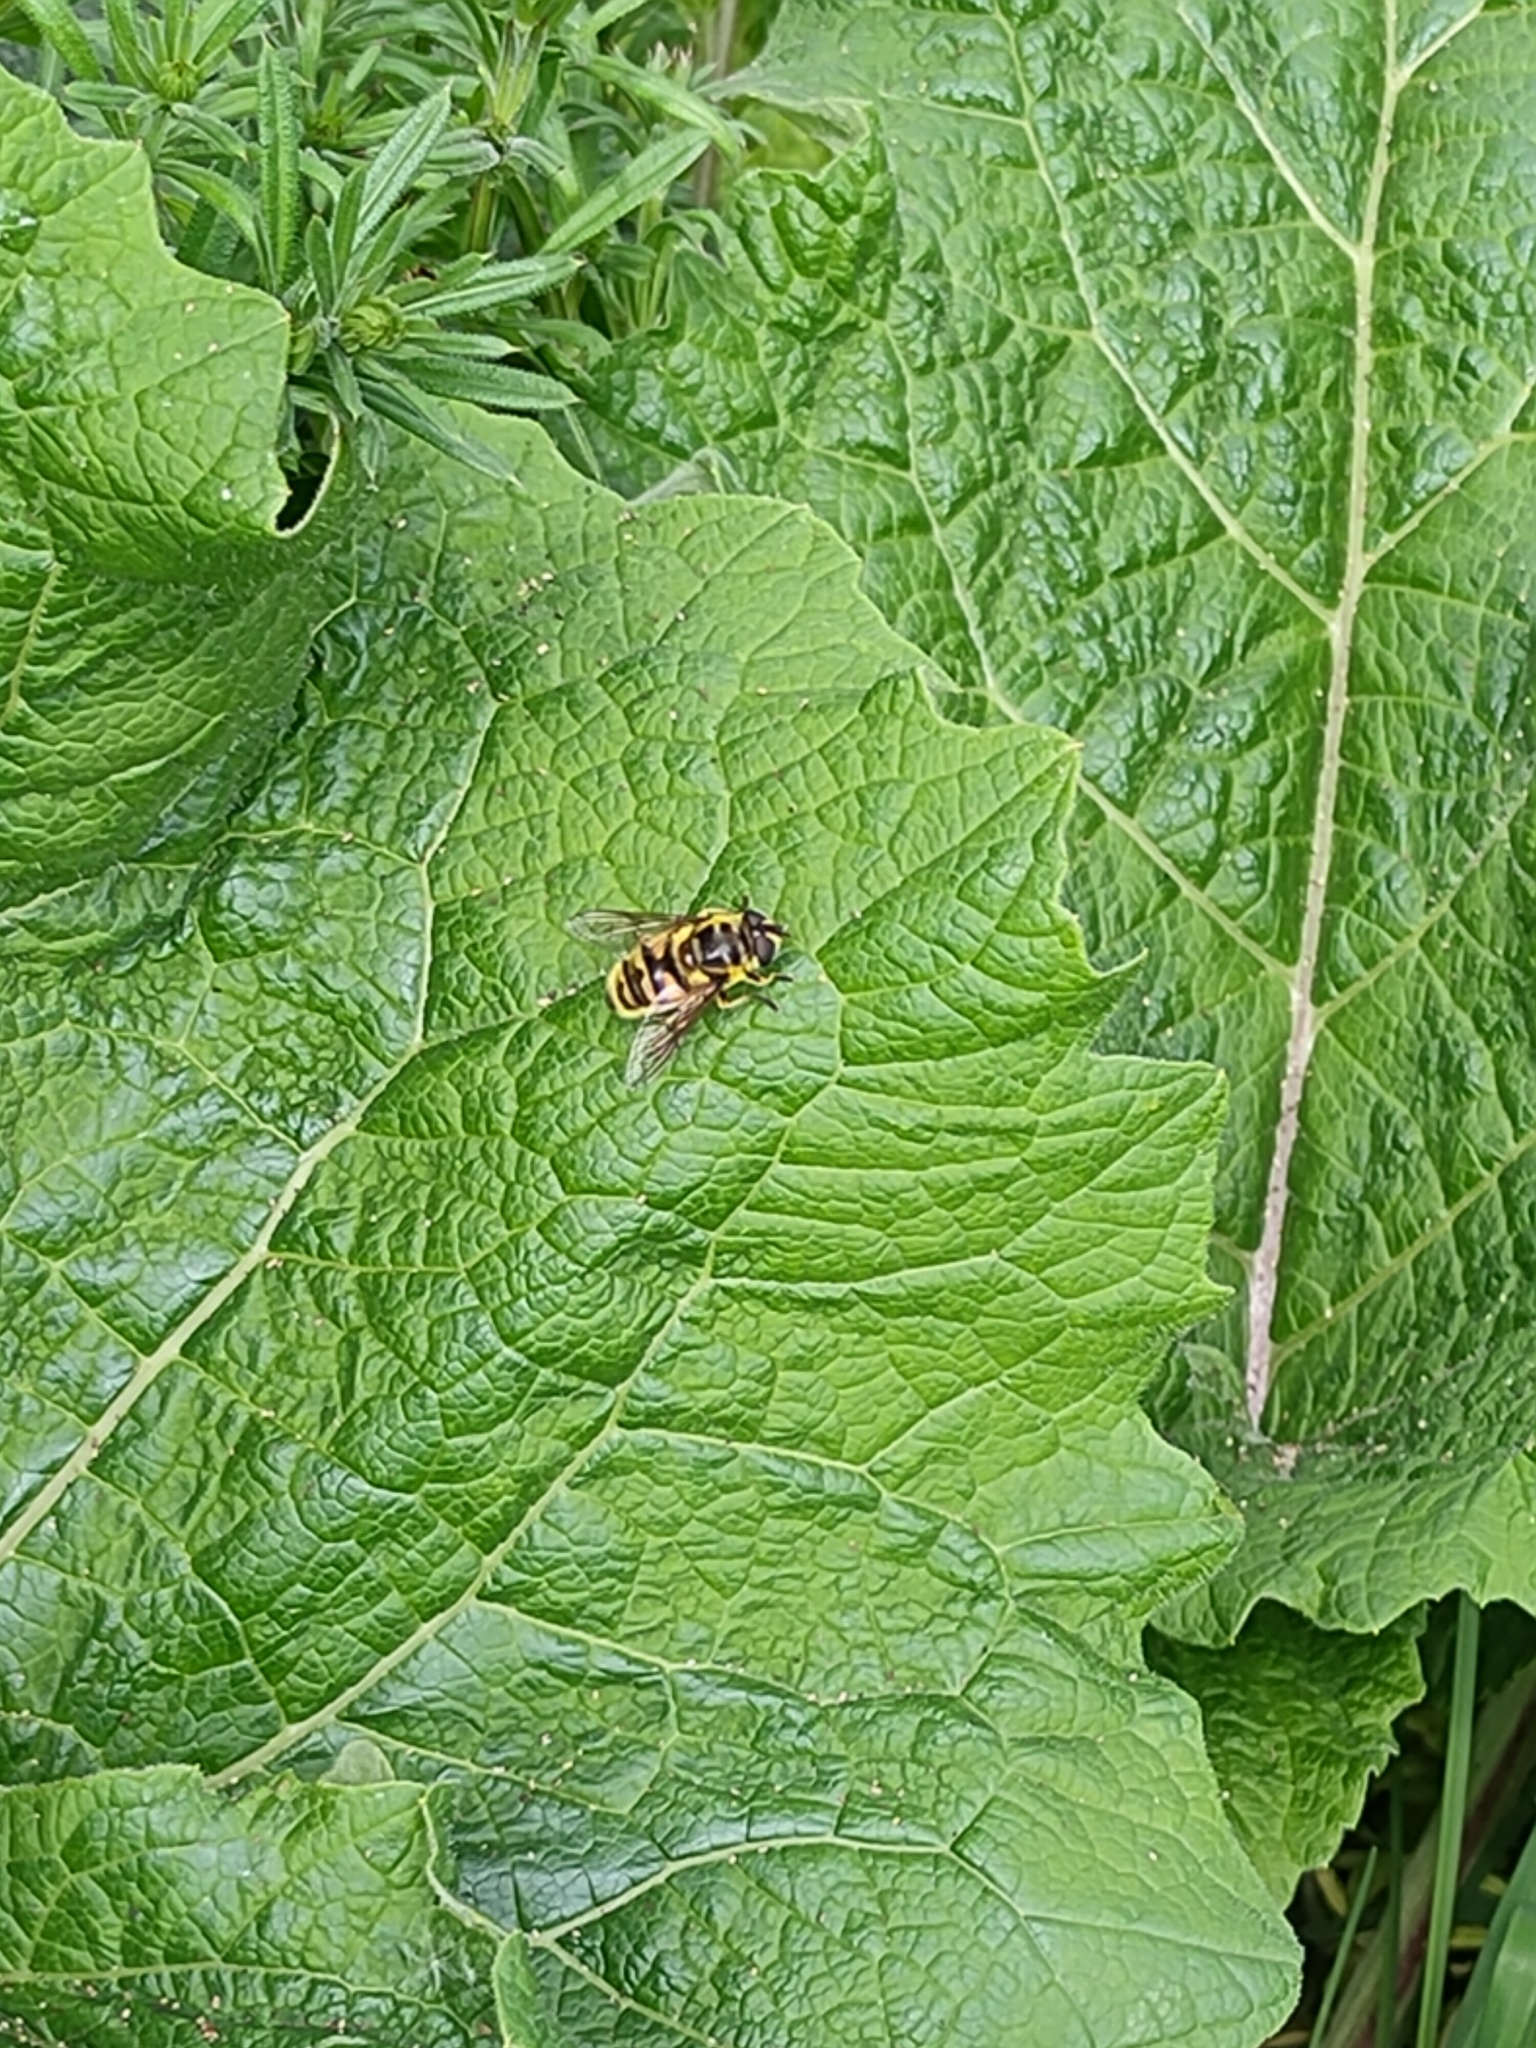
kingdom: Animalia
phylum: Arthropoda
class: Insecta
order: Diptera
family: Syrphidae
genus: Myathropa
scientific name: Myathropa florea
